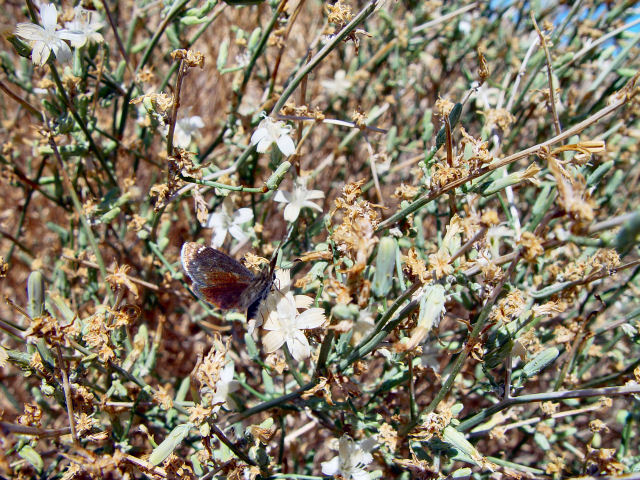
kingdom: Animalia
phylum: Arthropoda
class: Insecta
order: Lepidoptera
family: Hesperiidae
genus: Pholisora
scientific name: Pholisora libya
